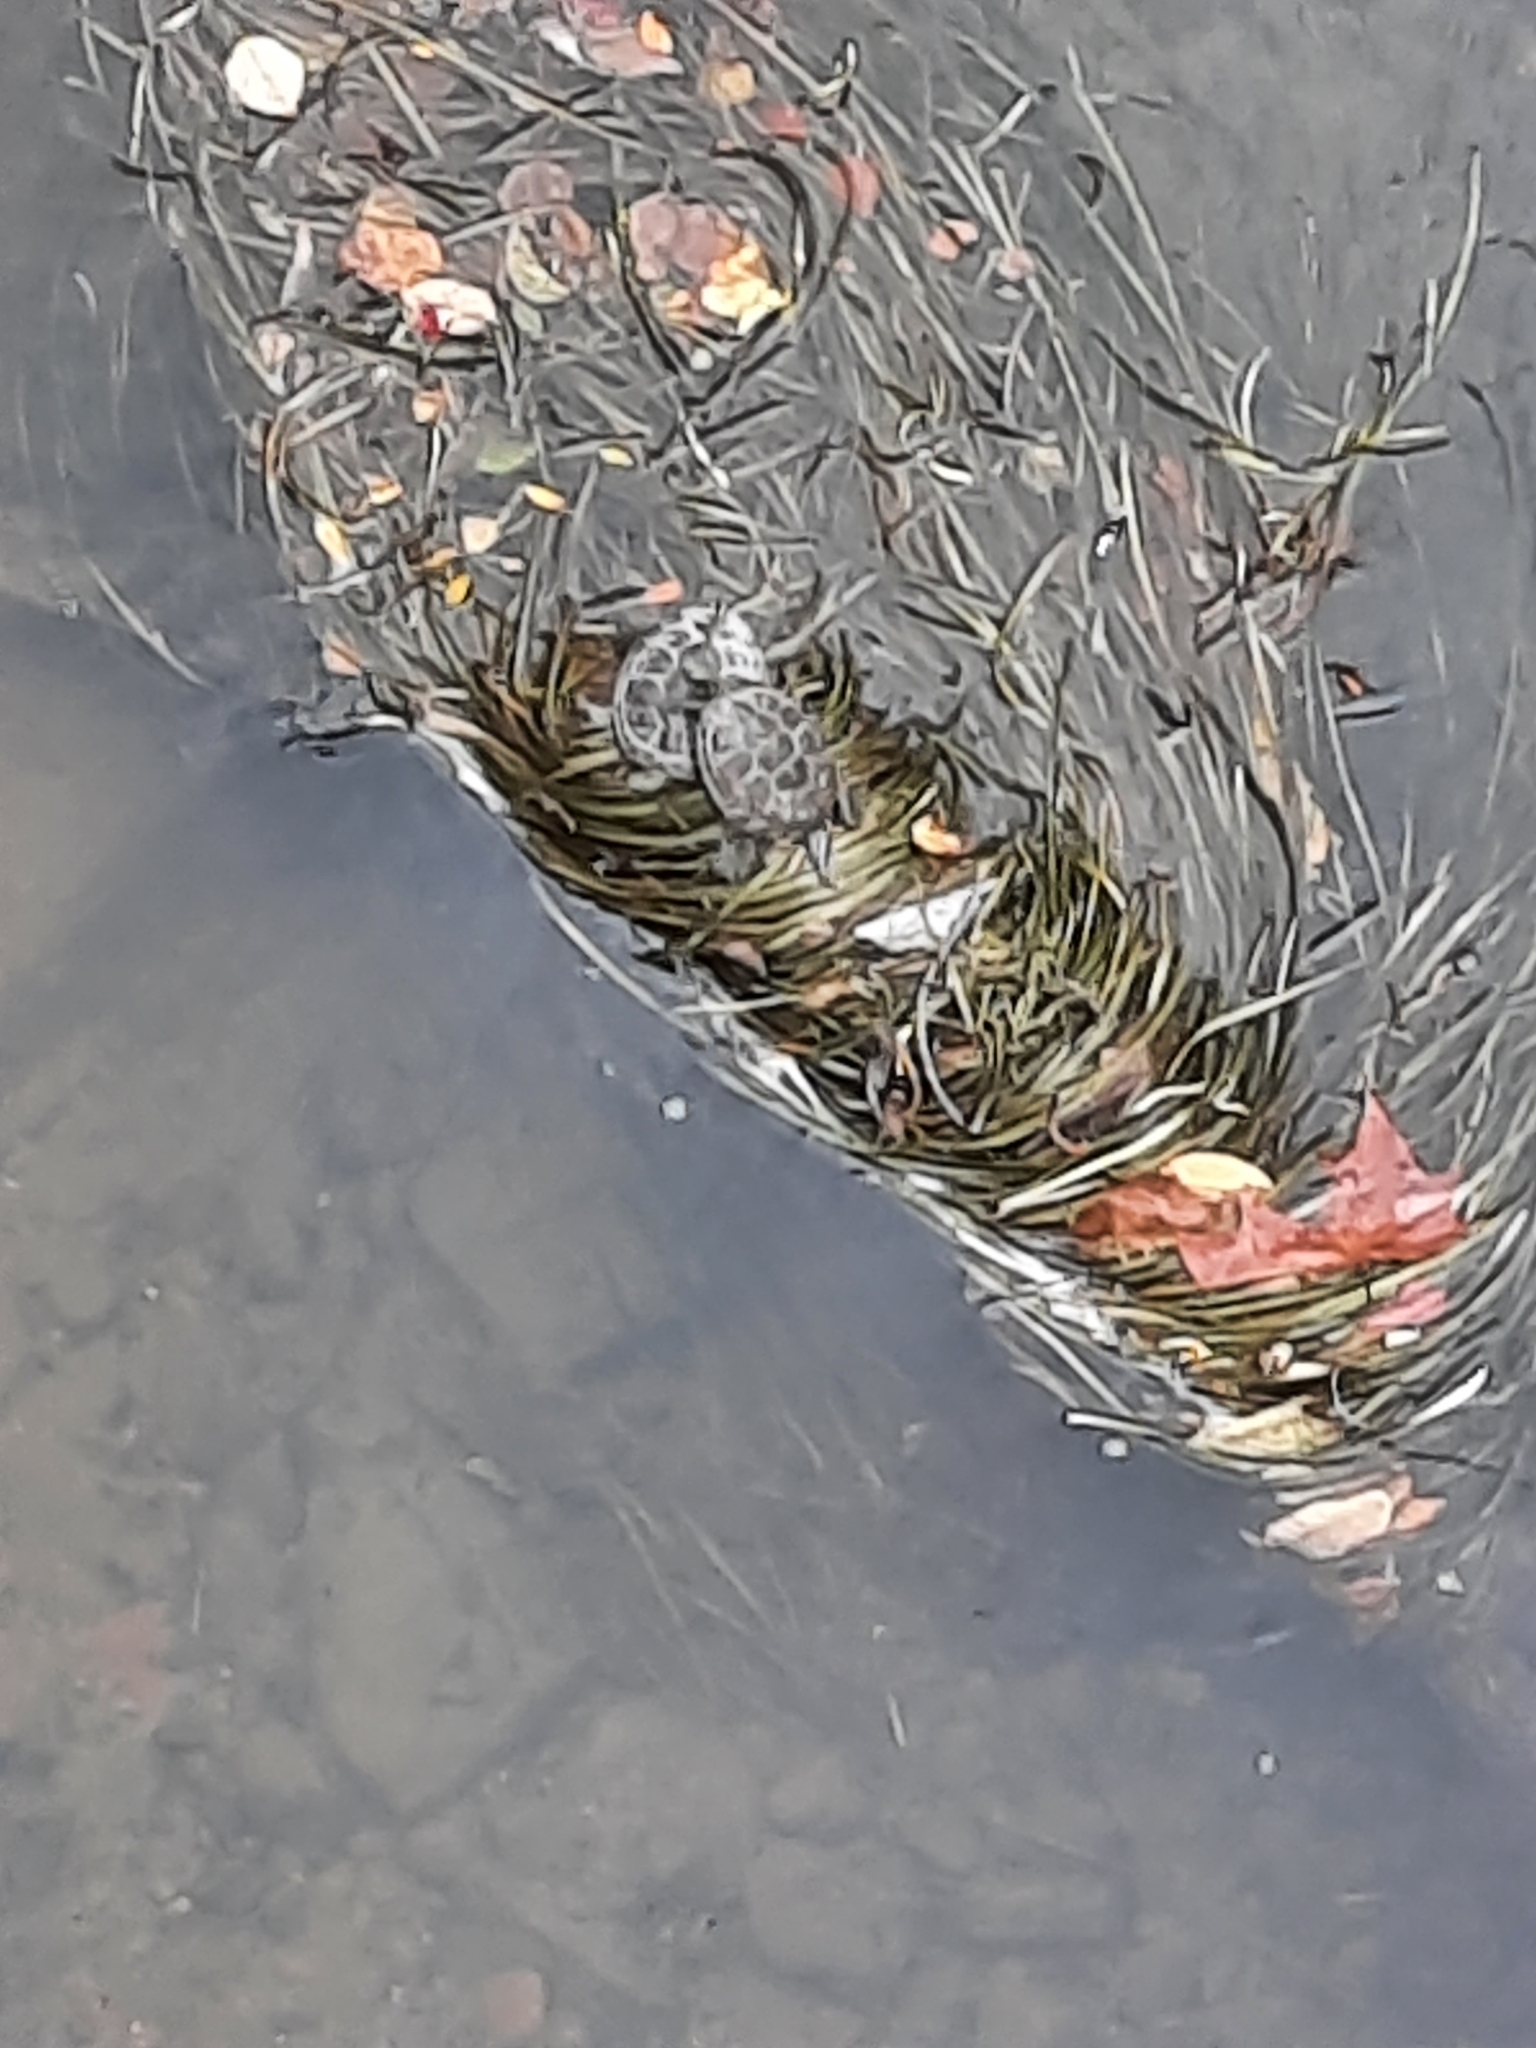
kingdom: Animalia
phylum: Chordata
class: Testudines
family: Emydidae
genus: Graptemys
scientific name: Graptemys geographica
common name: Common map turtle
